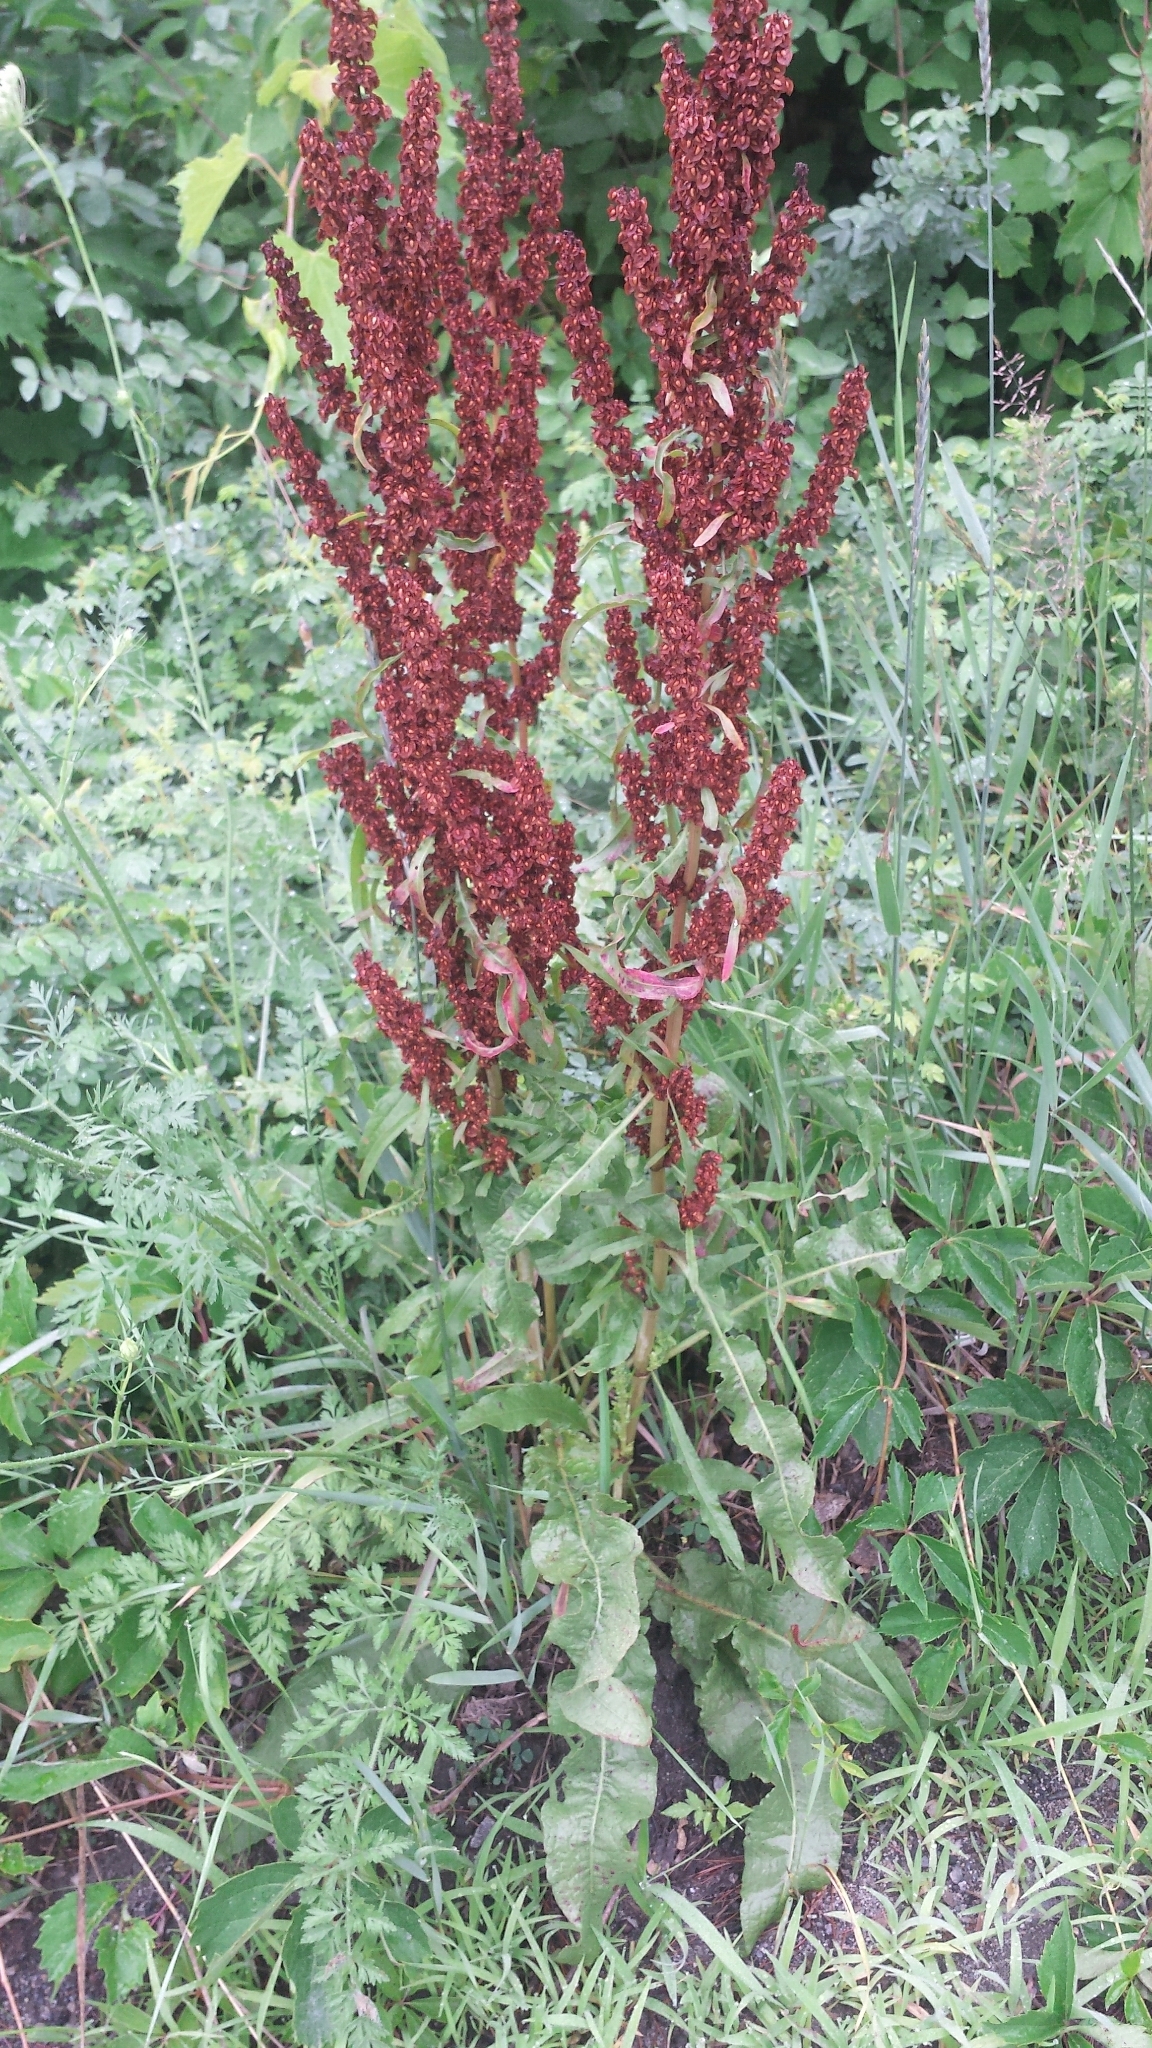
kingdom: Plantae
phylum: Tracheophyta
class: Magnoliopsida
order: Caryophyllales
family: Polygonaceae
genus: Rumex
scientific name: Rumex crispus
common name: Curled dock
